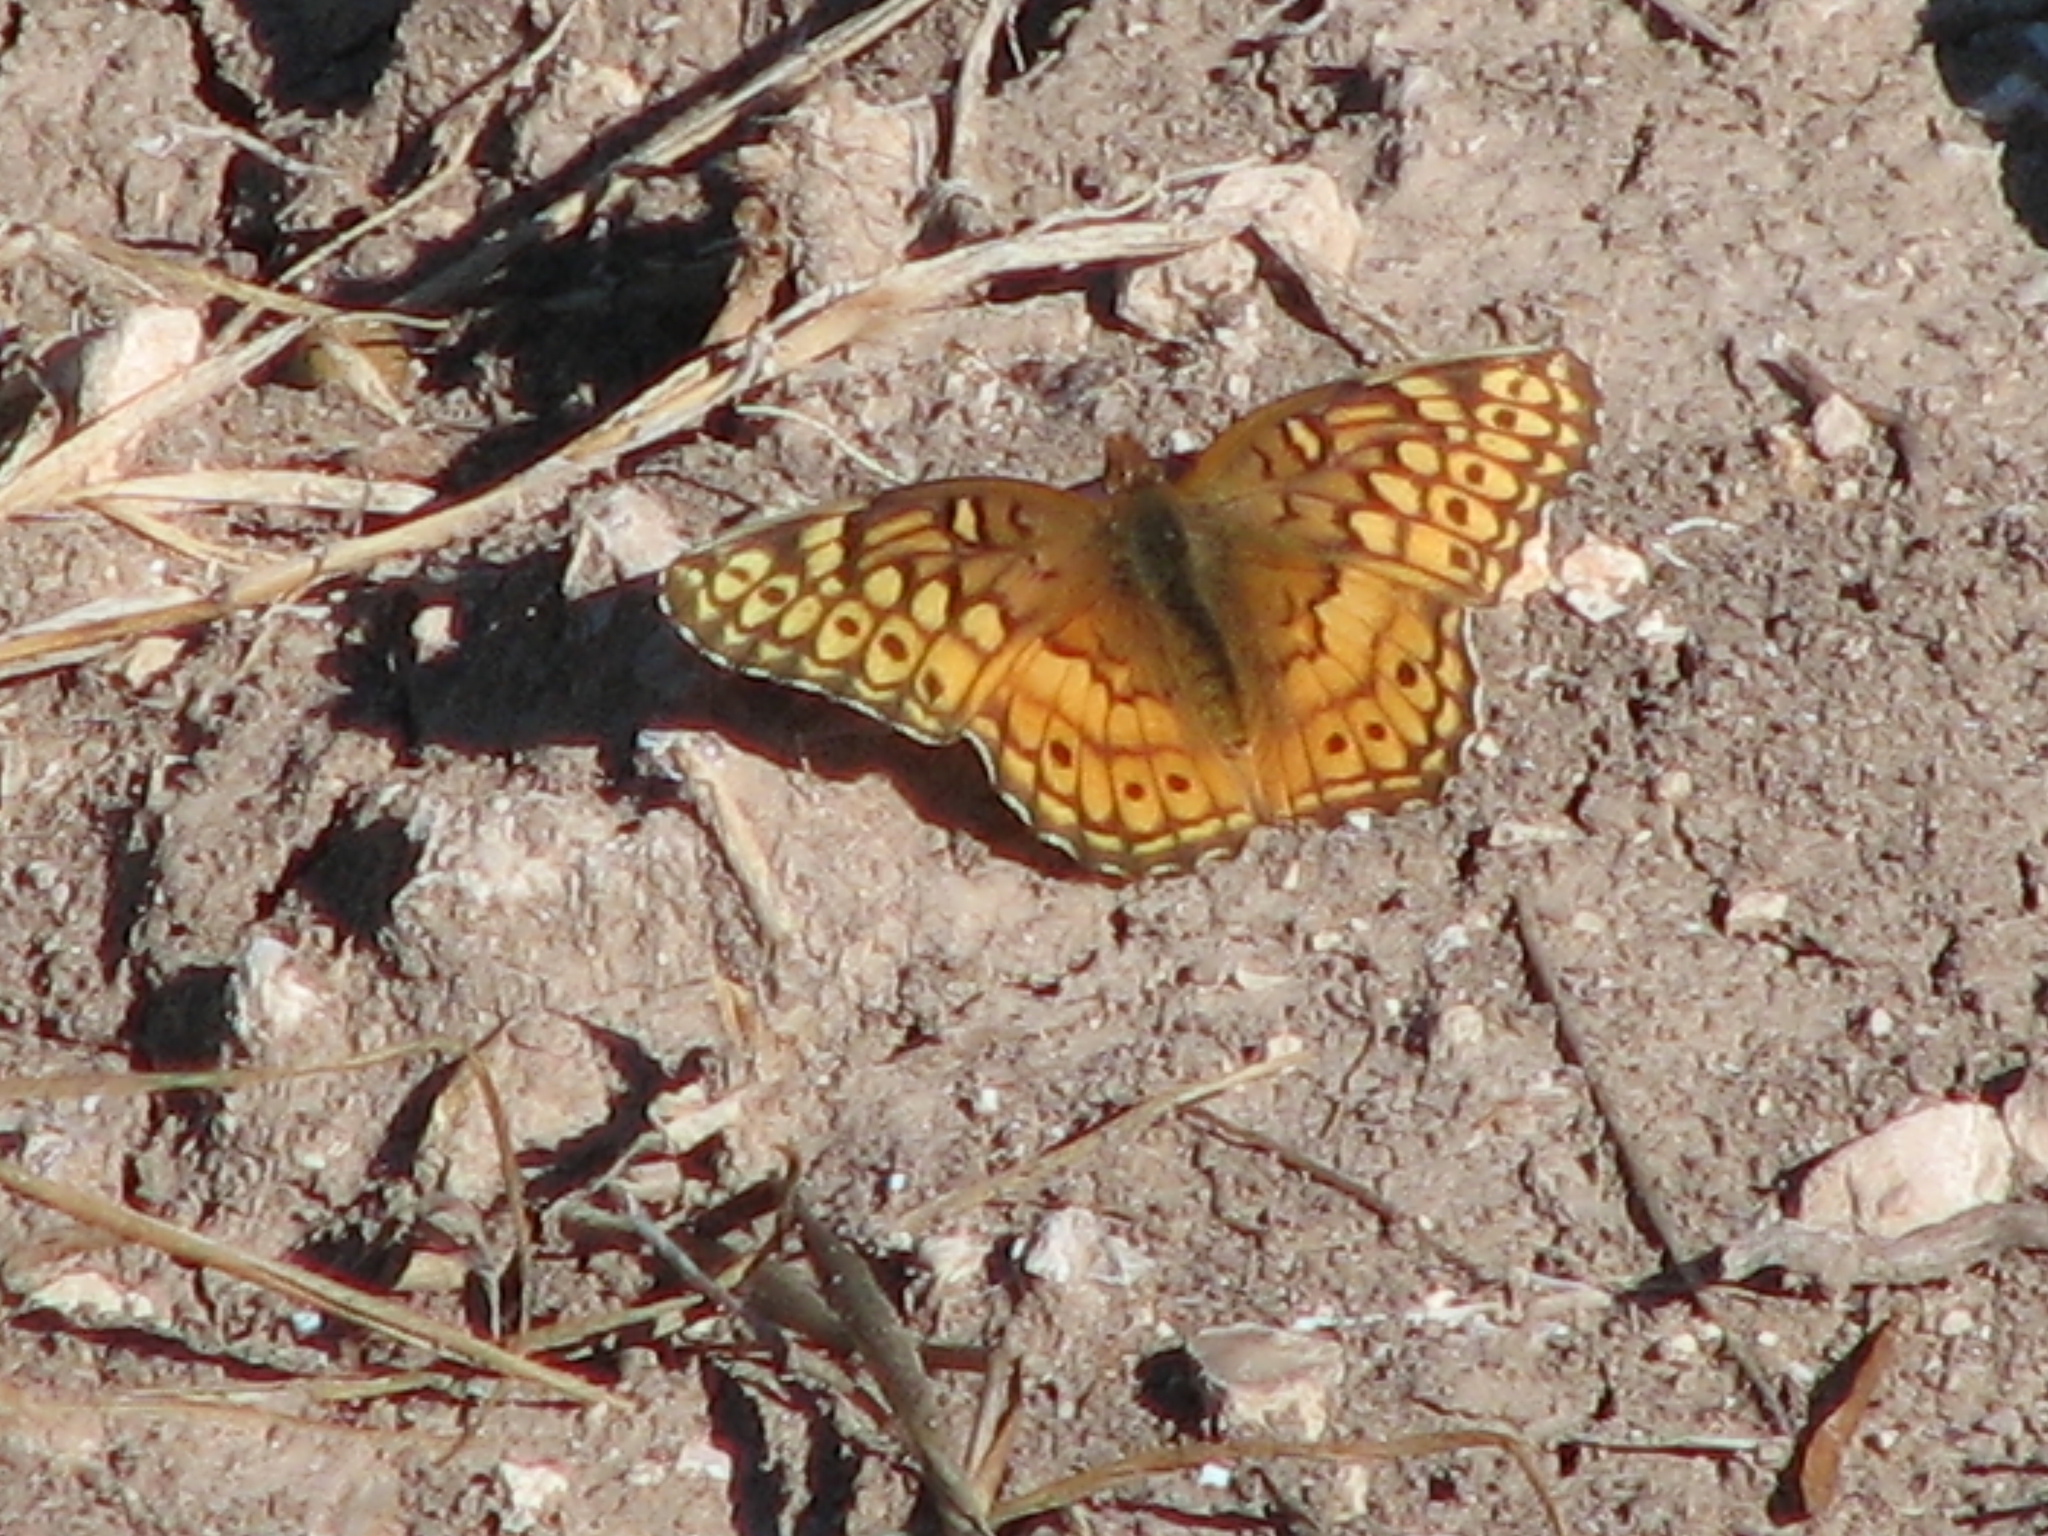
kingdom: Animalia
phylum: Arthropoda
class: Insecta
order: Lepidoptera
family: Nymphalidae
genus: Euptoieta
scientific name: Euptoieta claudia
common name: Variegated fritillary
